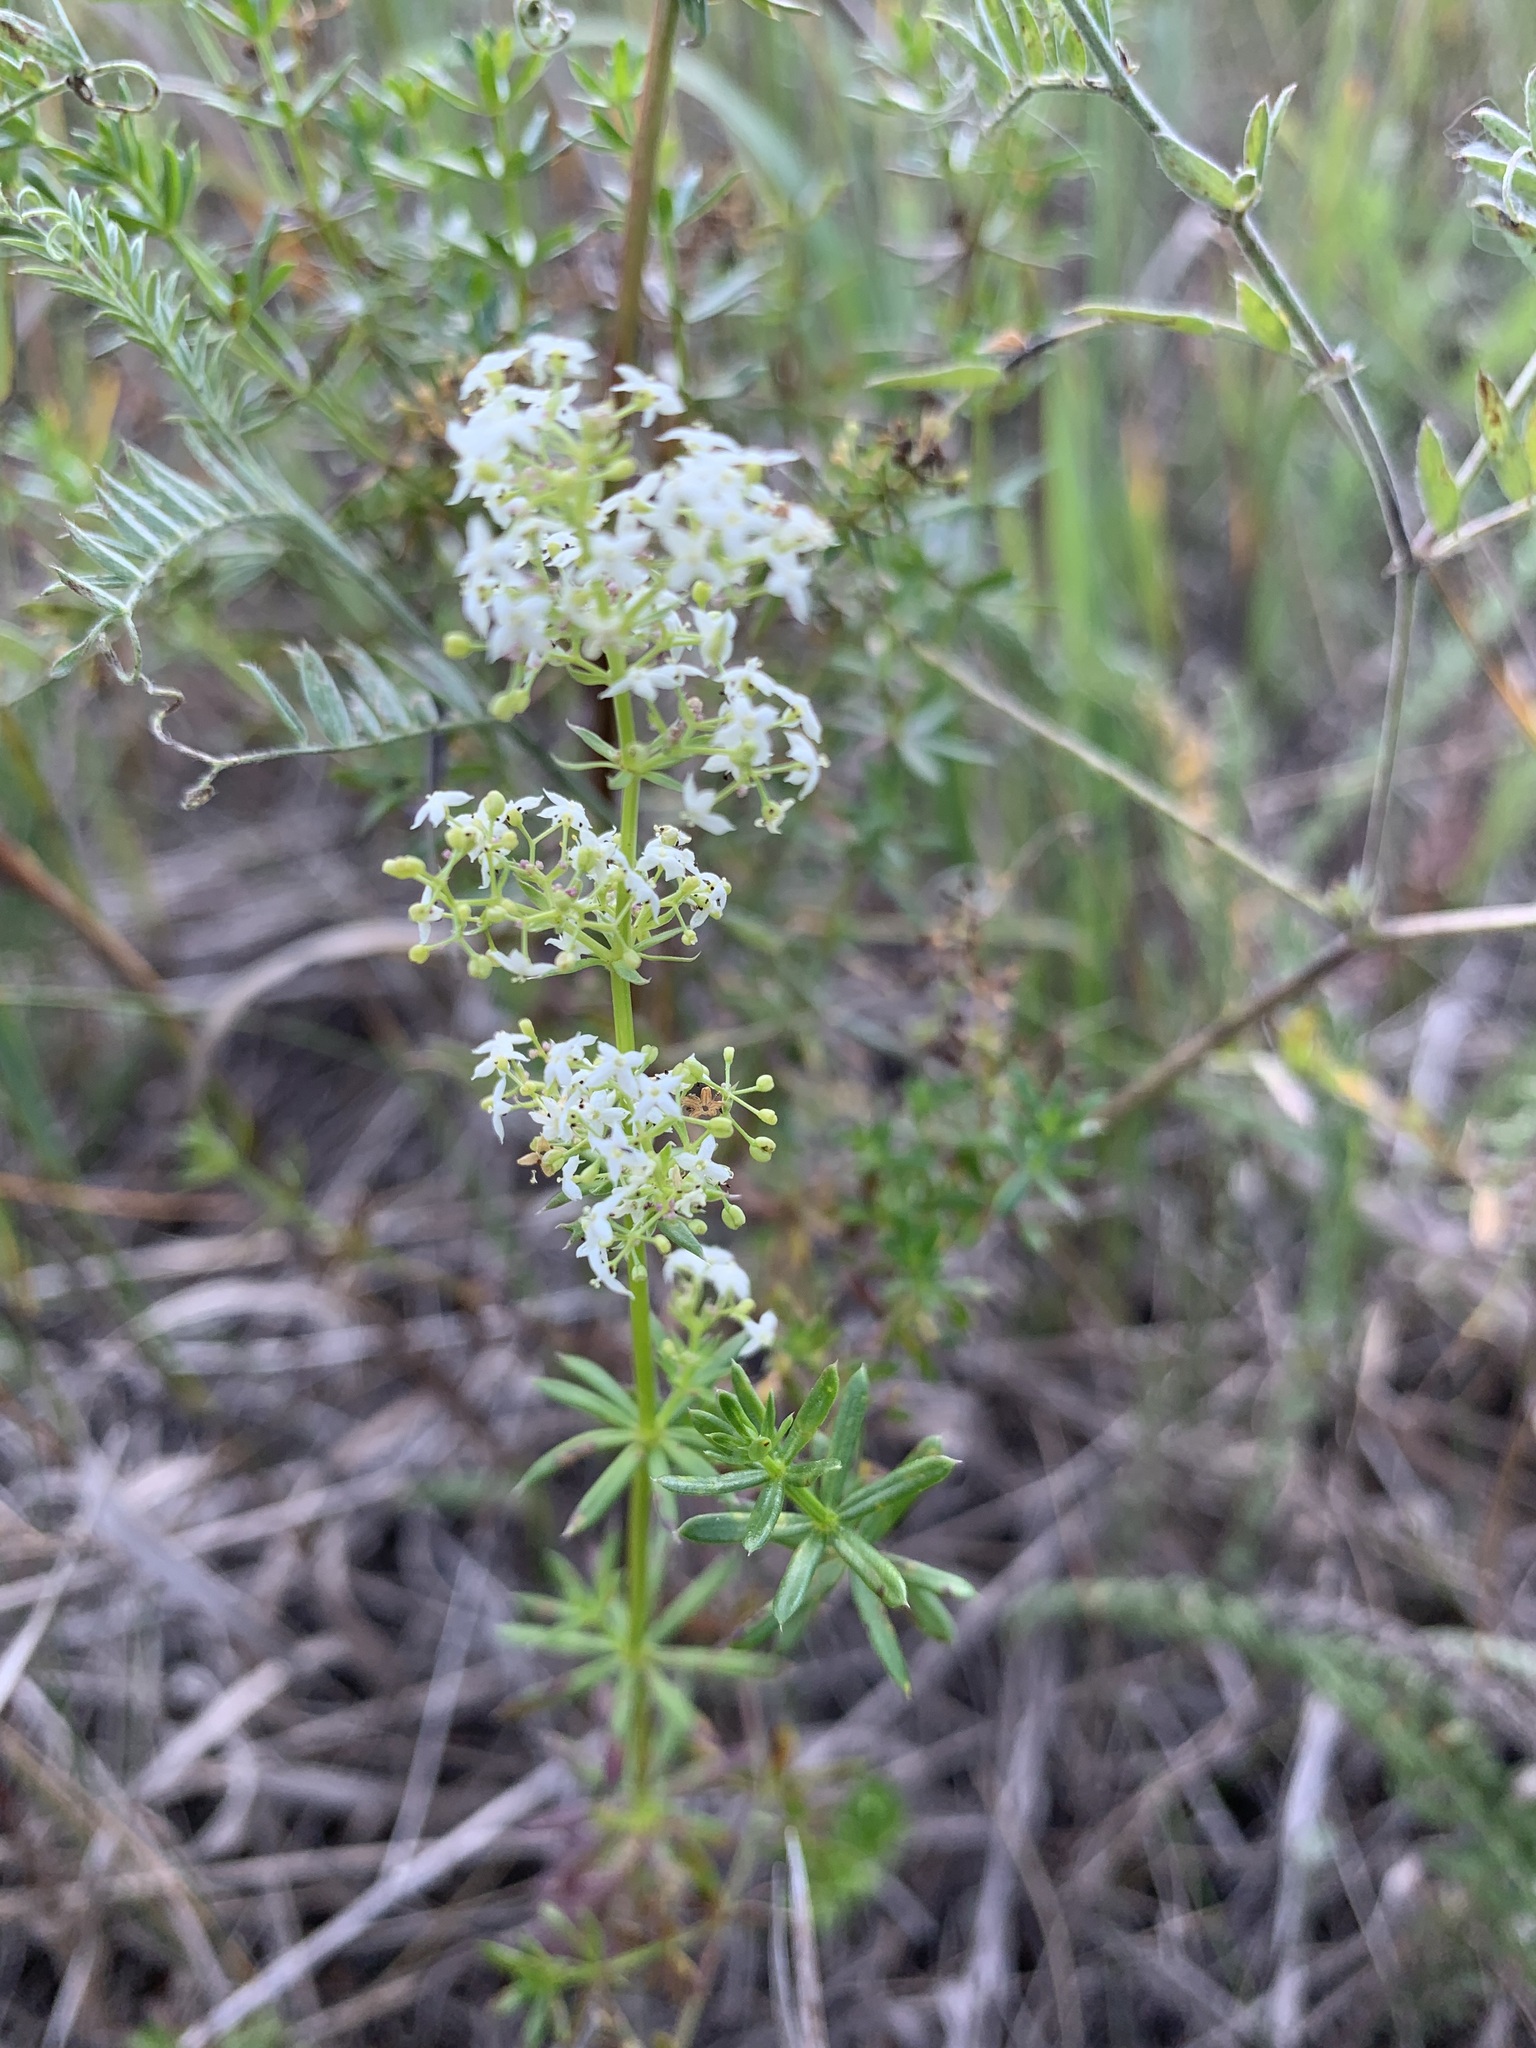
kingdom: Plantae
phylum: Tracheophyta
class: Magnoliopsida
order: Gentianales
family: Rubiaceae
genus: Galium
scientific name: Galium mollugo
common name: Hedge bedstraw
